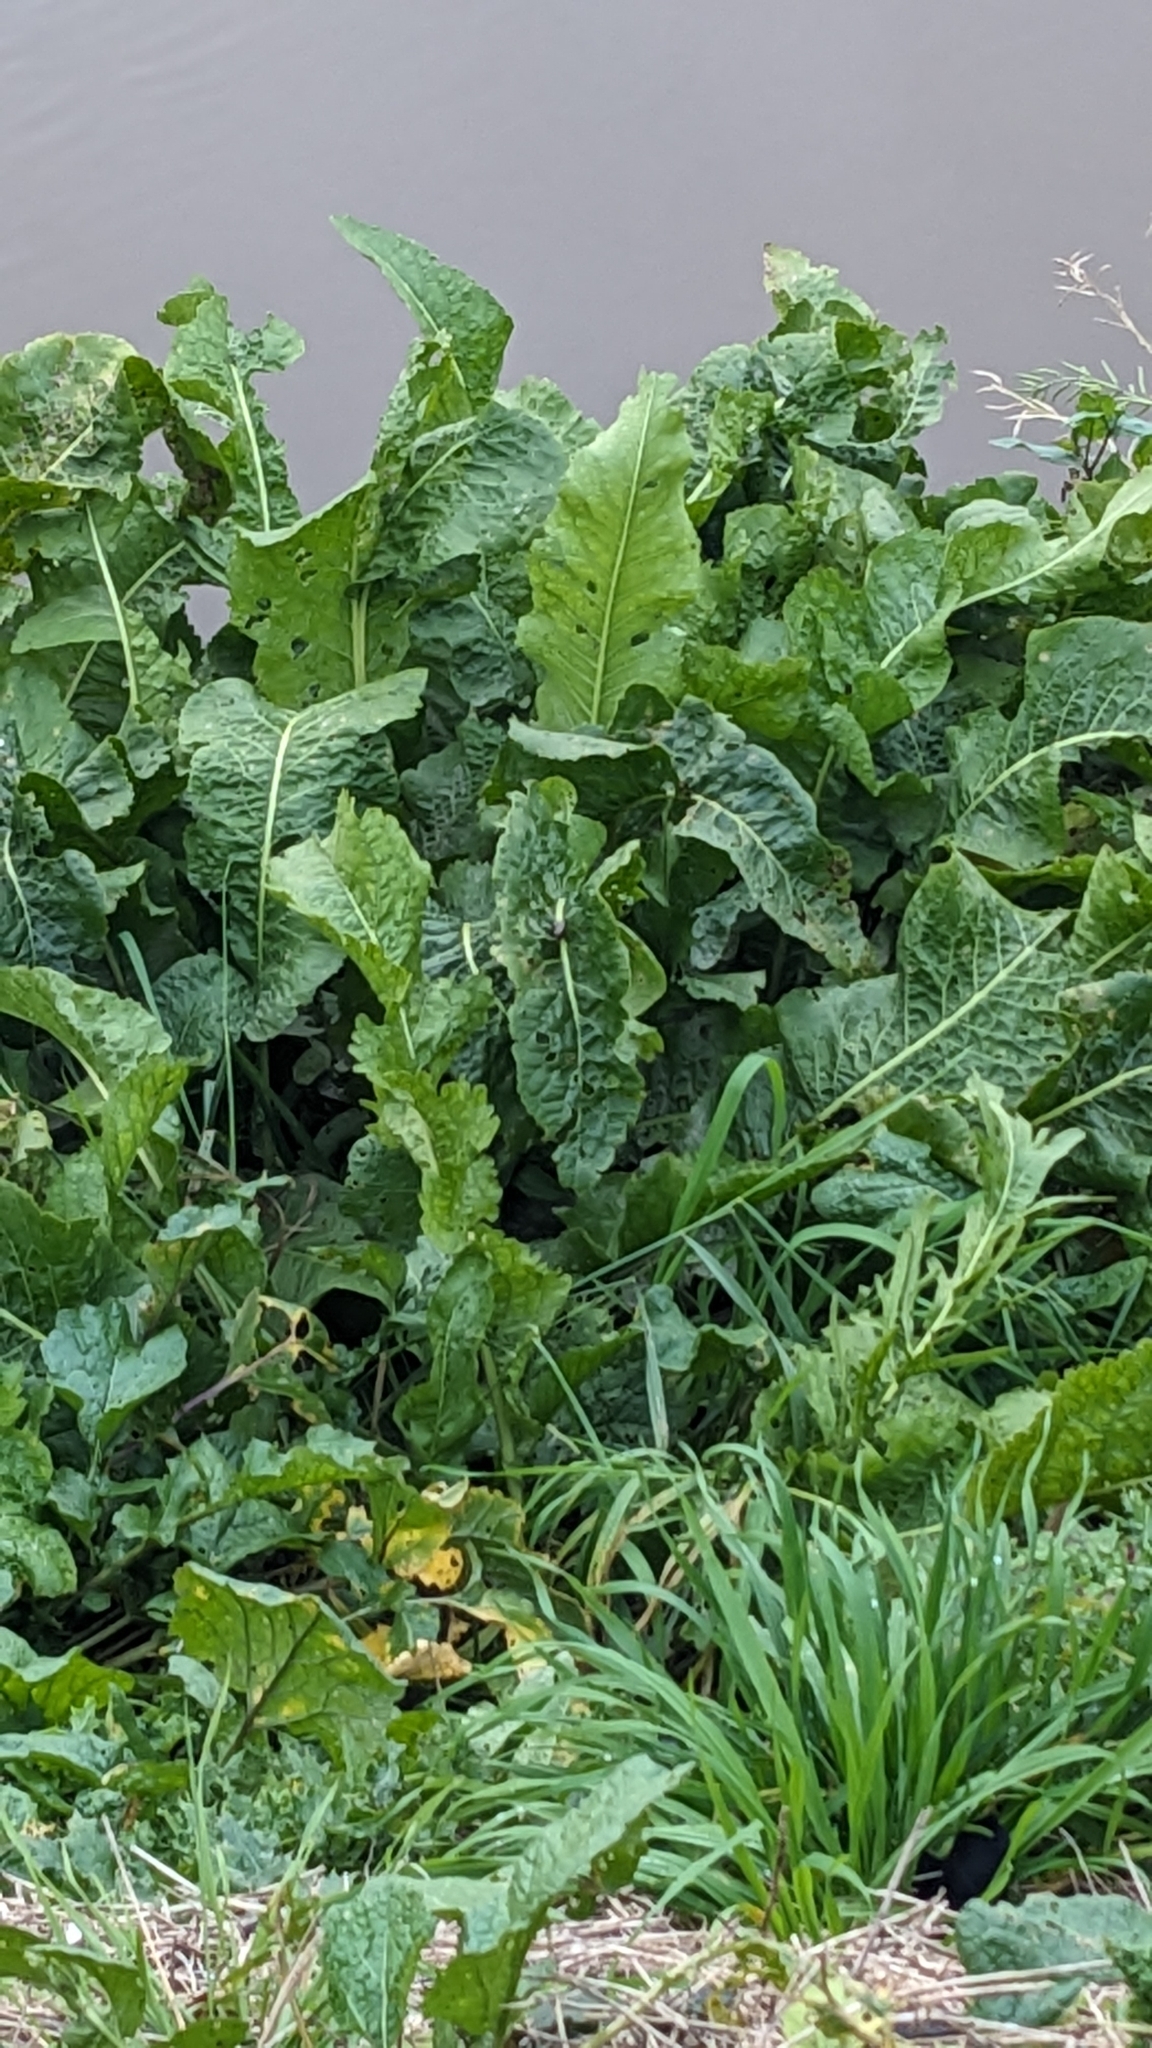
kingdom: Plantae
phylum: Tracheophyta
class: Magnoliopsida
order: Brassicales
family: Brassicaceae
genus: Armoracia
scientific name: Armoracia rusticana
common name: Horseradish
